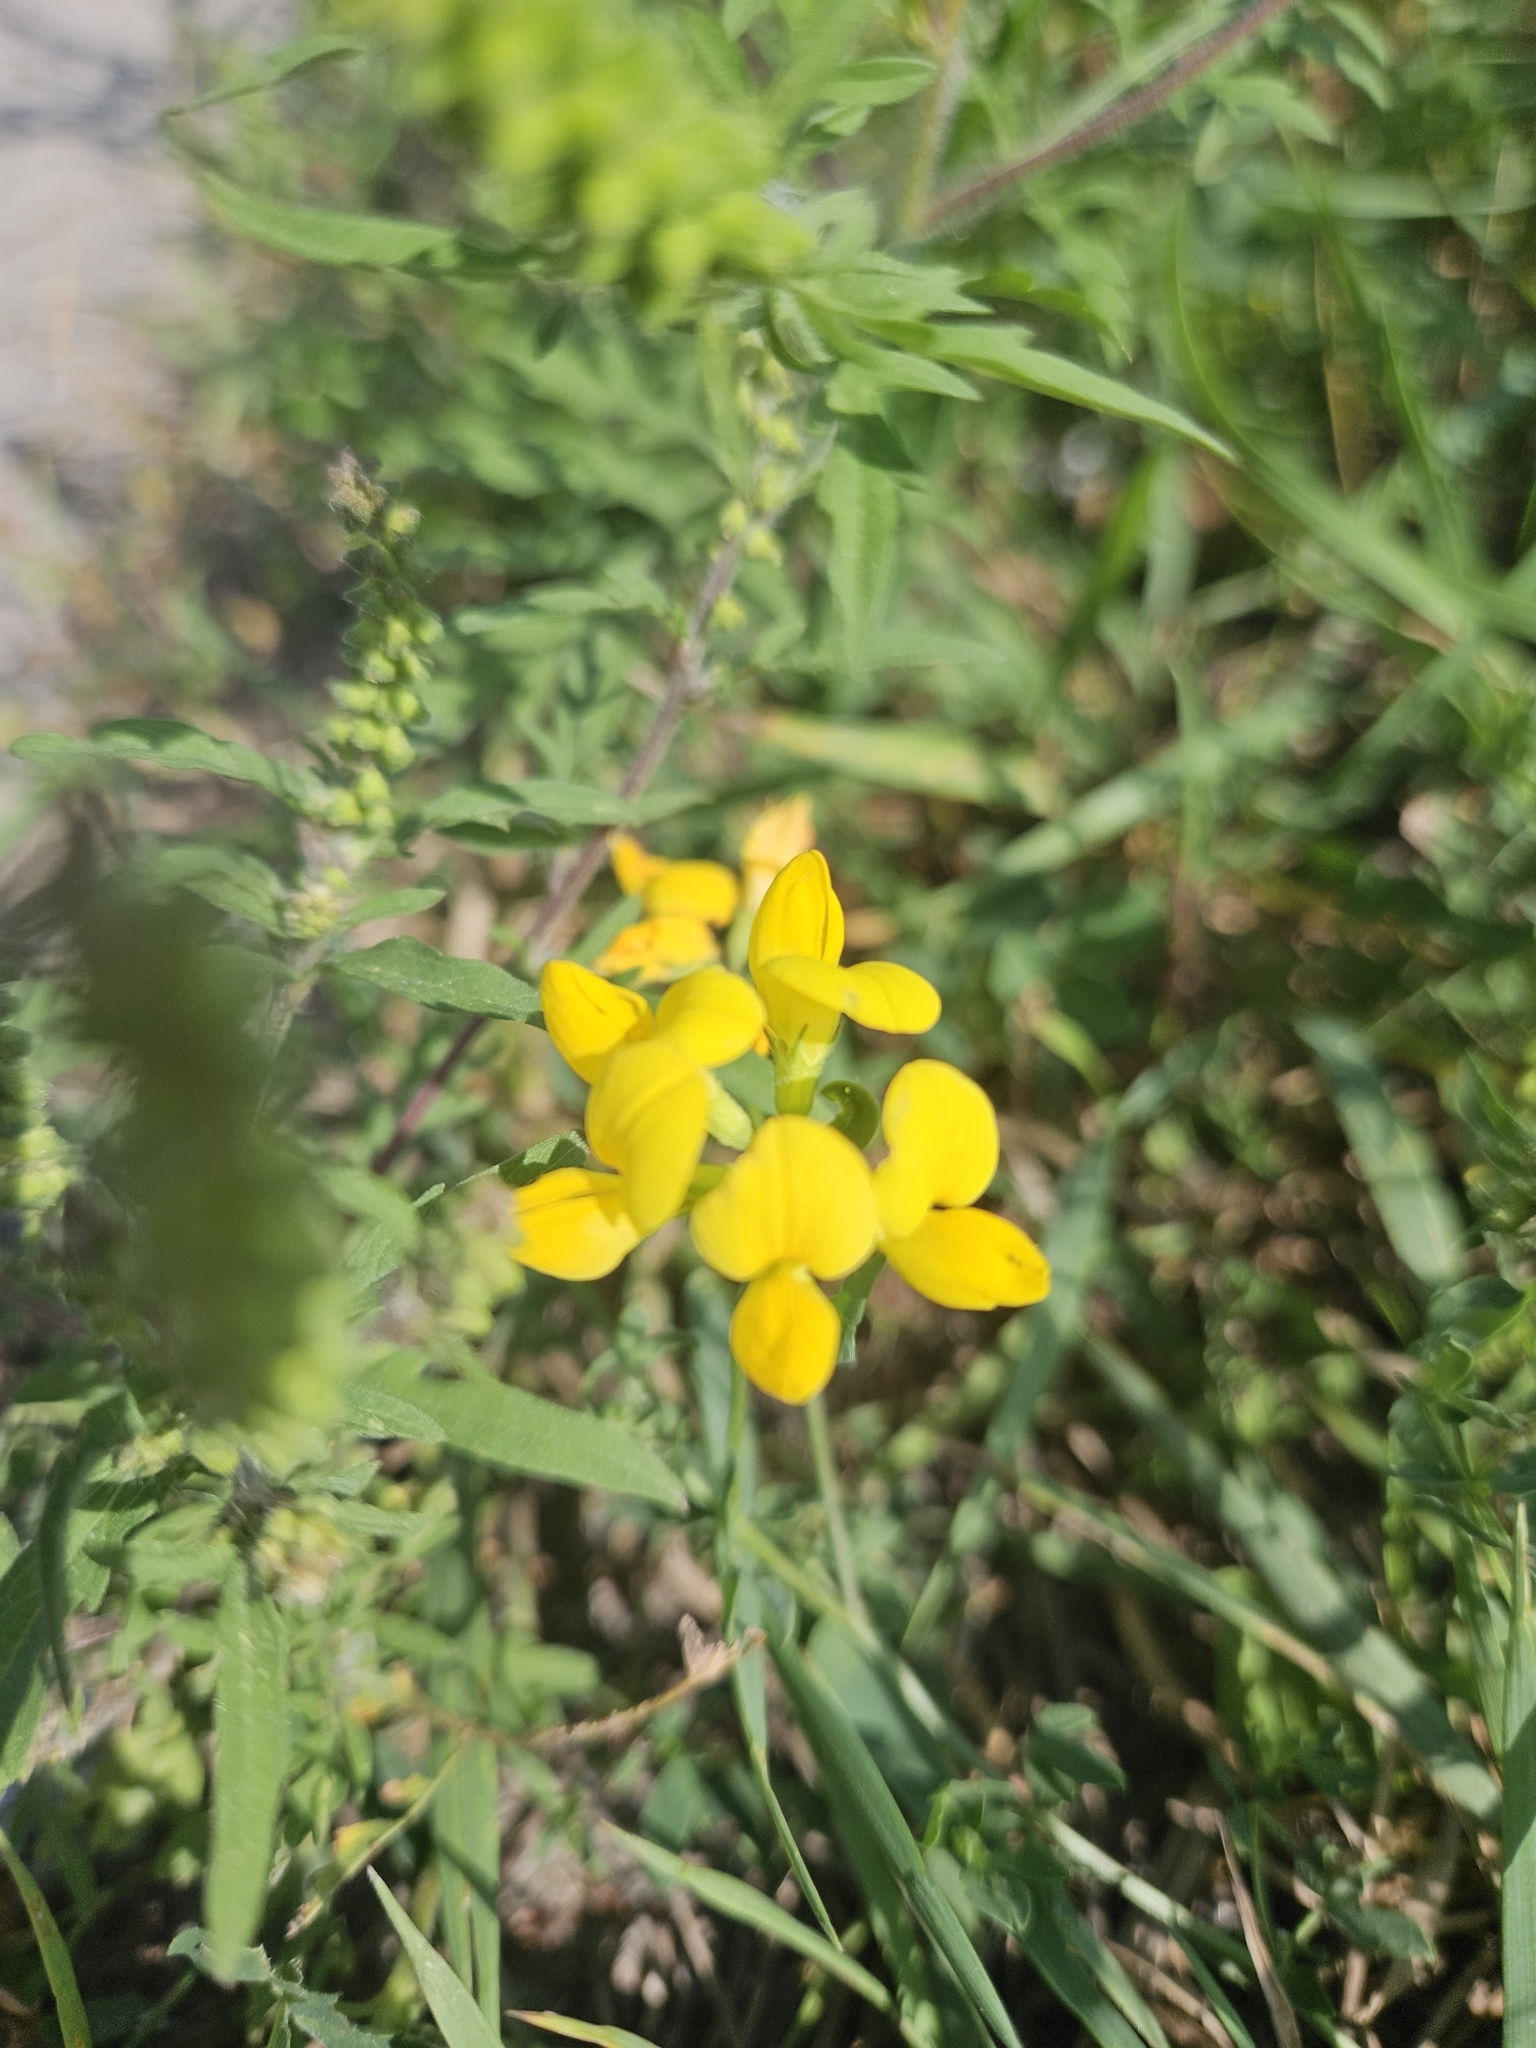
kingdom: Plantae
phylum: Tracheophyta
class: Magnoliopsida
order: Fabales
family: Fabaceae
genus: Lotus
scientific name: Lotus corniculatus
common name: Common bird's-foot-trefoil
